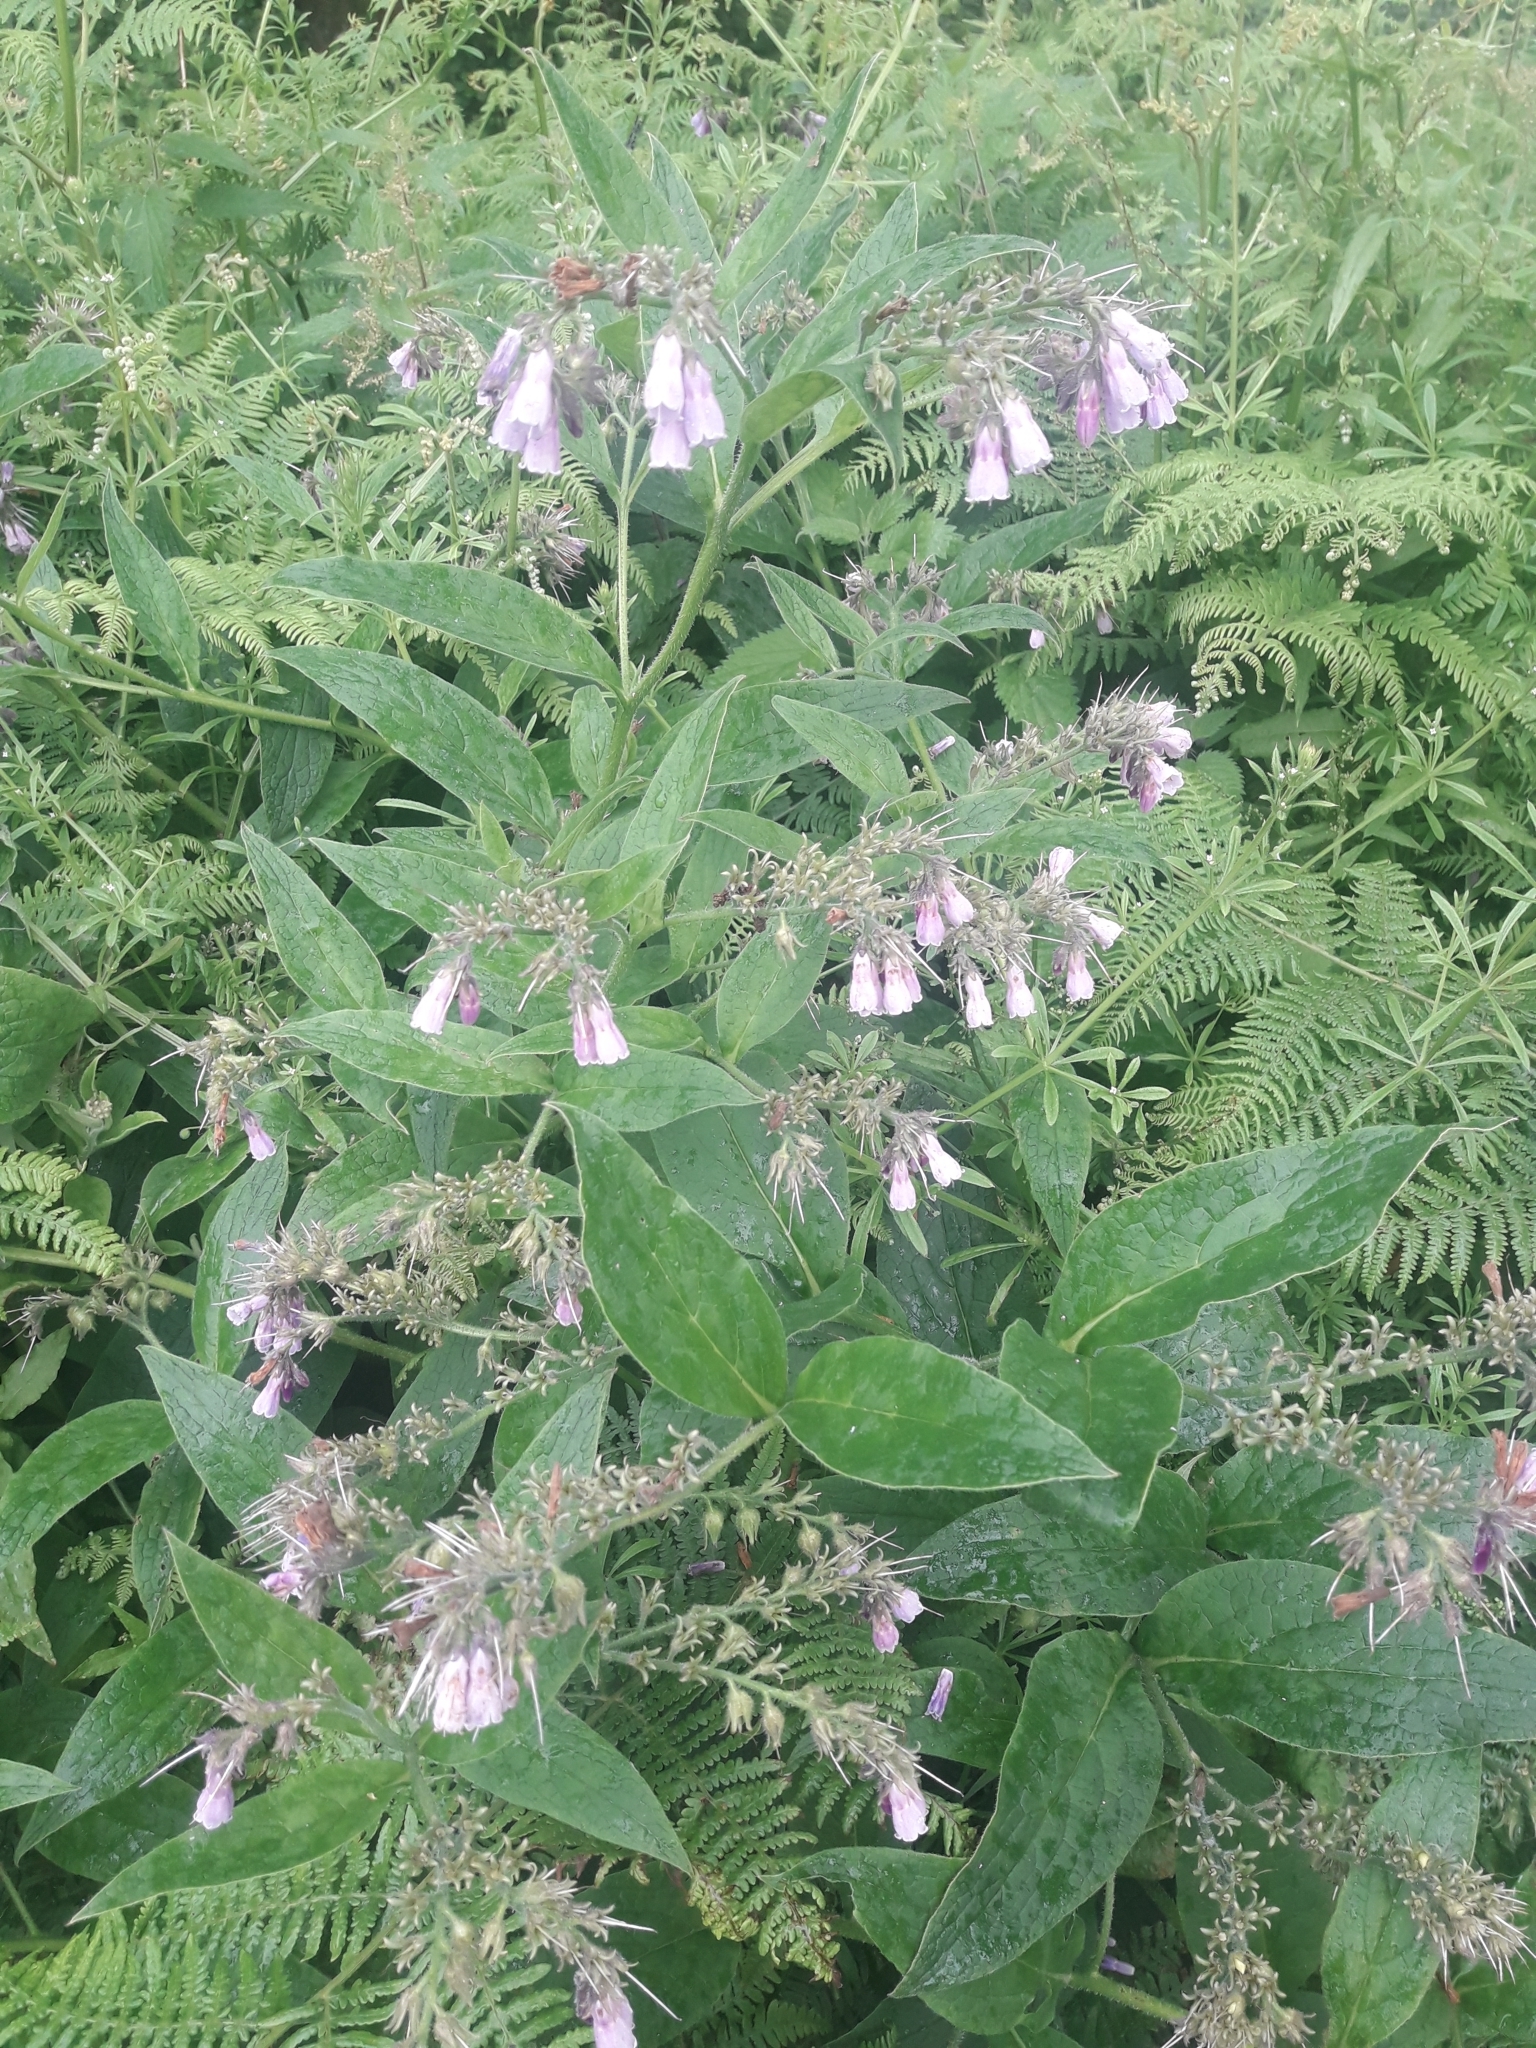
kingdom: Plantae
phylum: Tracheophyta
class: Magnoliopsida
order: Boraginales
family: Boraginaceae
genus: Symphytum
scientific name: Symphytum uplandicum
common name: Russian comfrey
